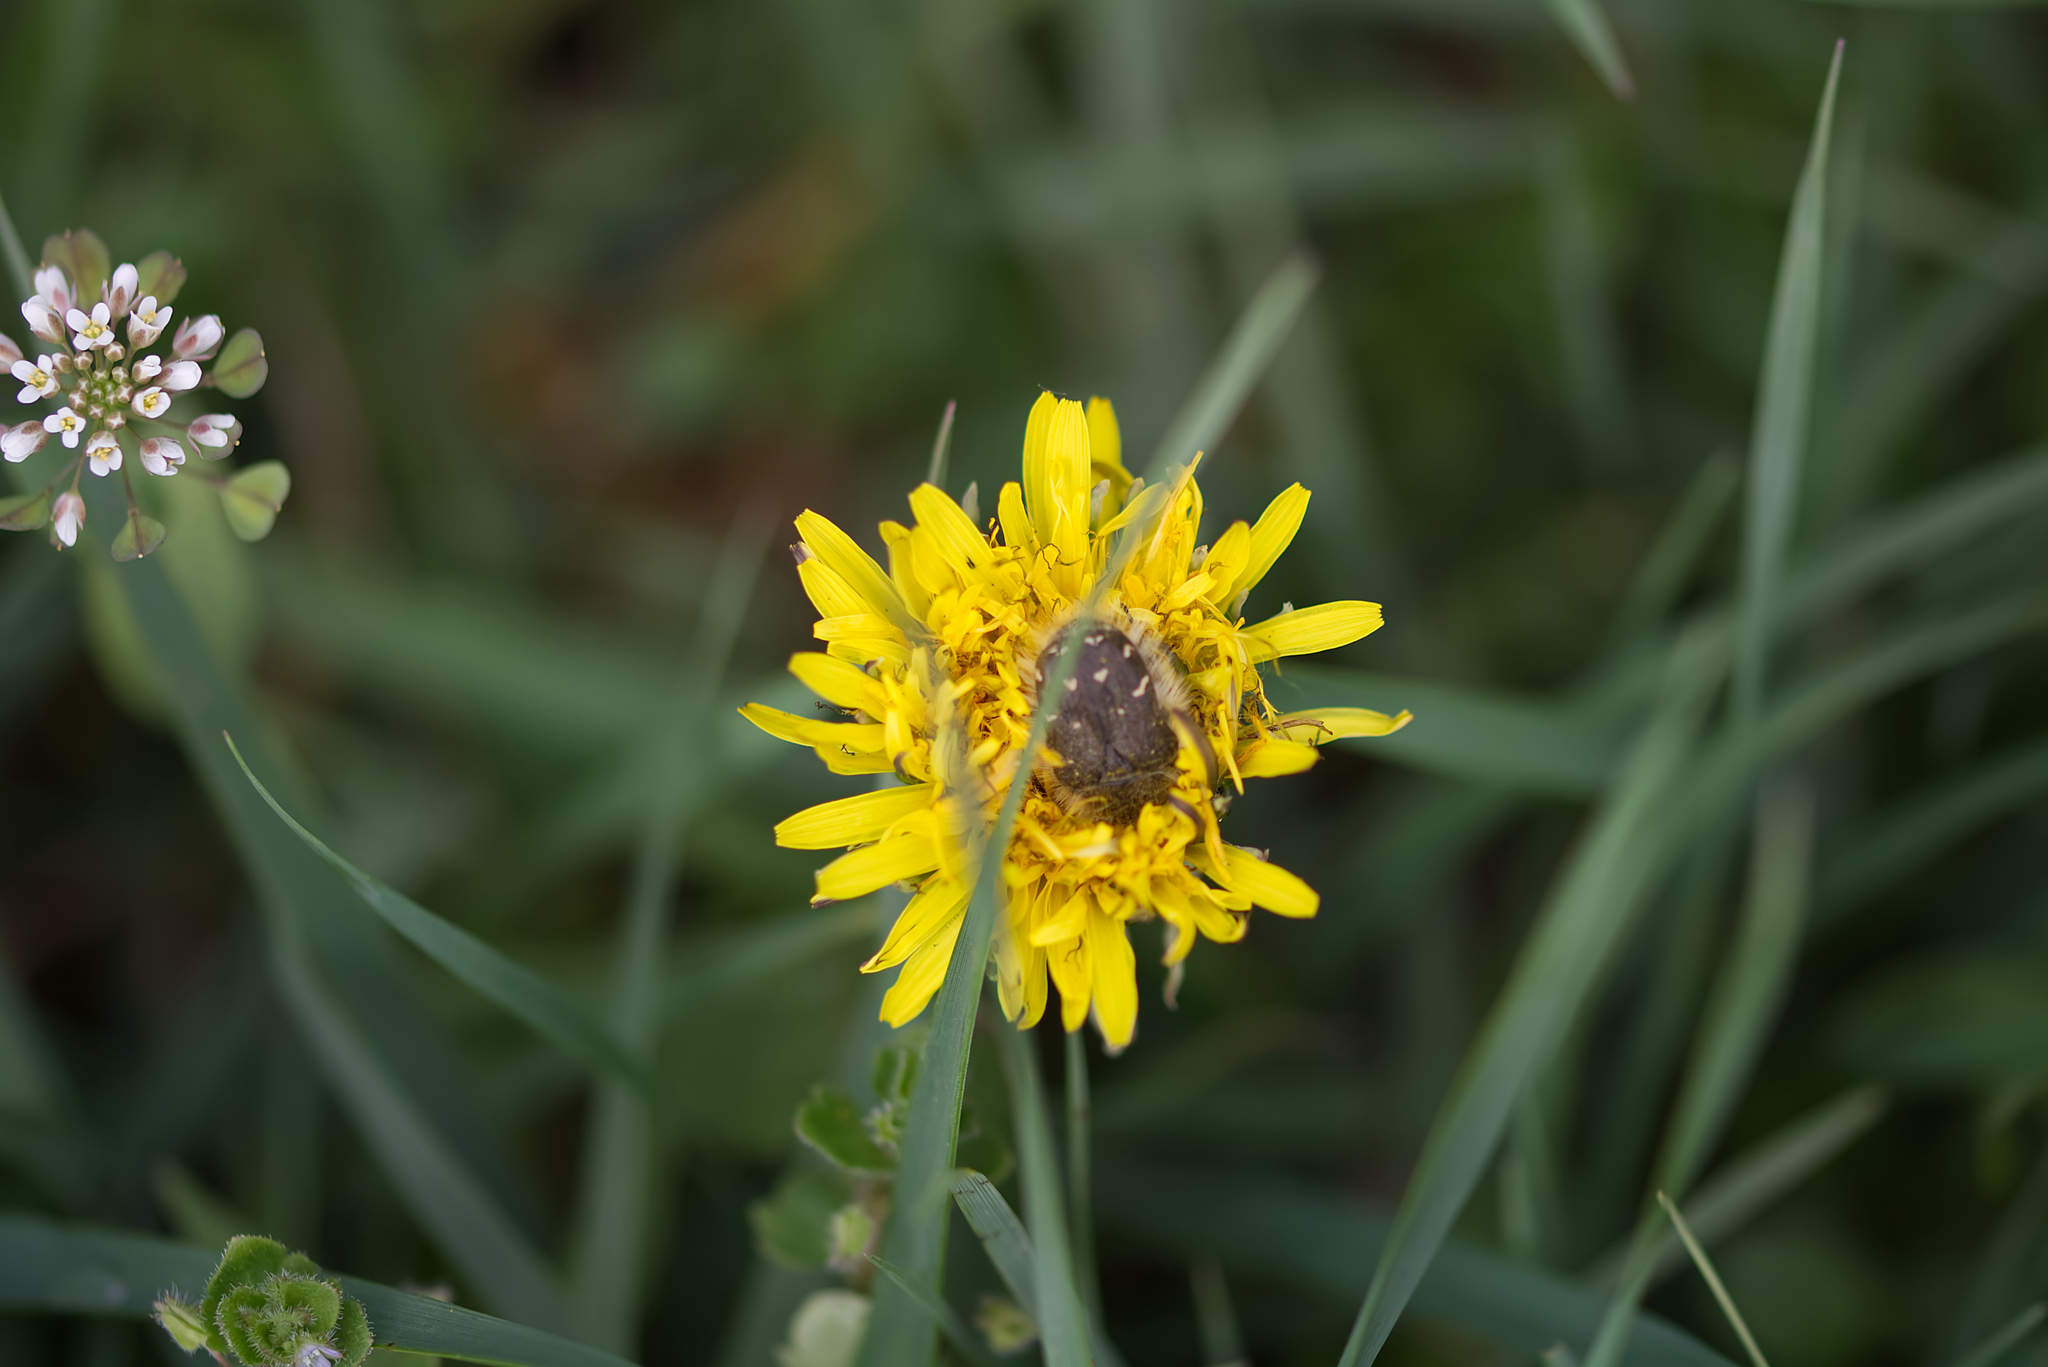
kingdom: Animalia
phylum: Arthropoda
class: Insecta
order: Coleoptera
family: Scarabaeidae
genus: Tropinota
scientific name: Tropinota hirta
